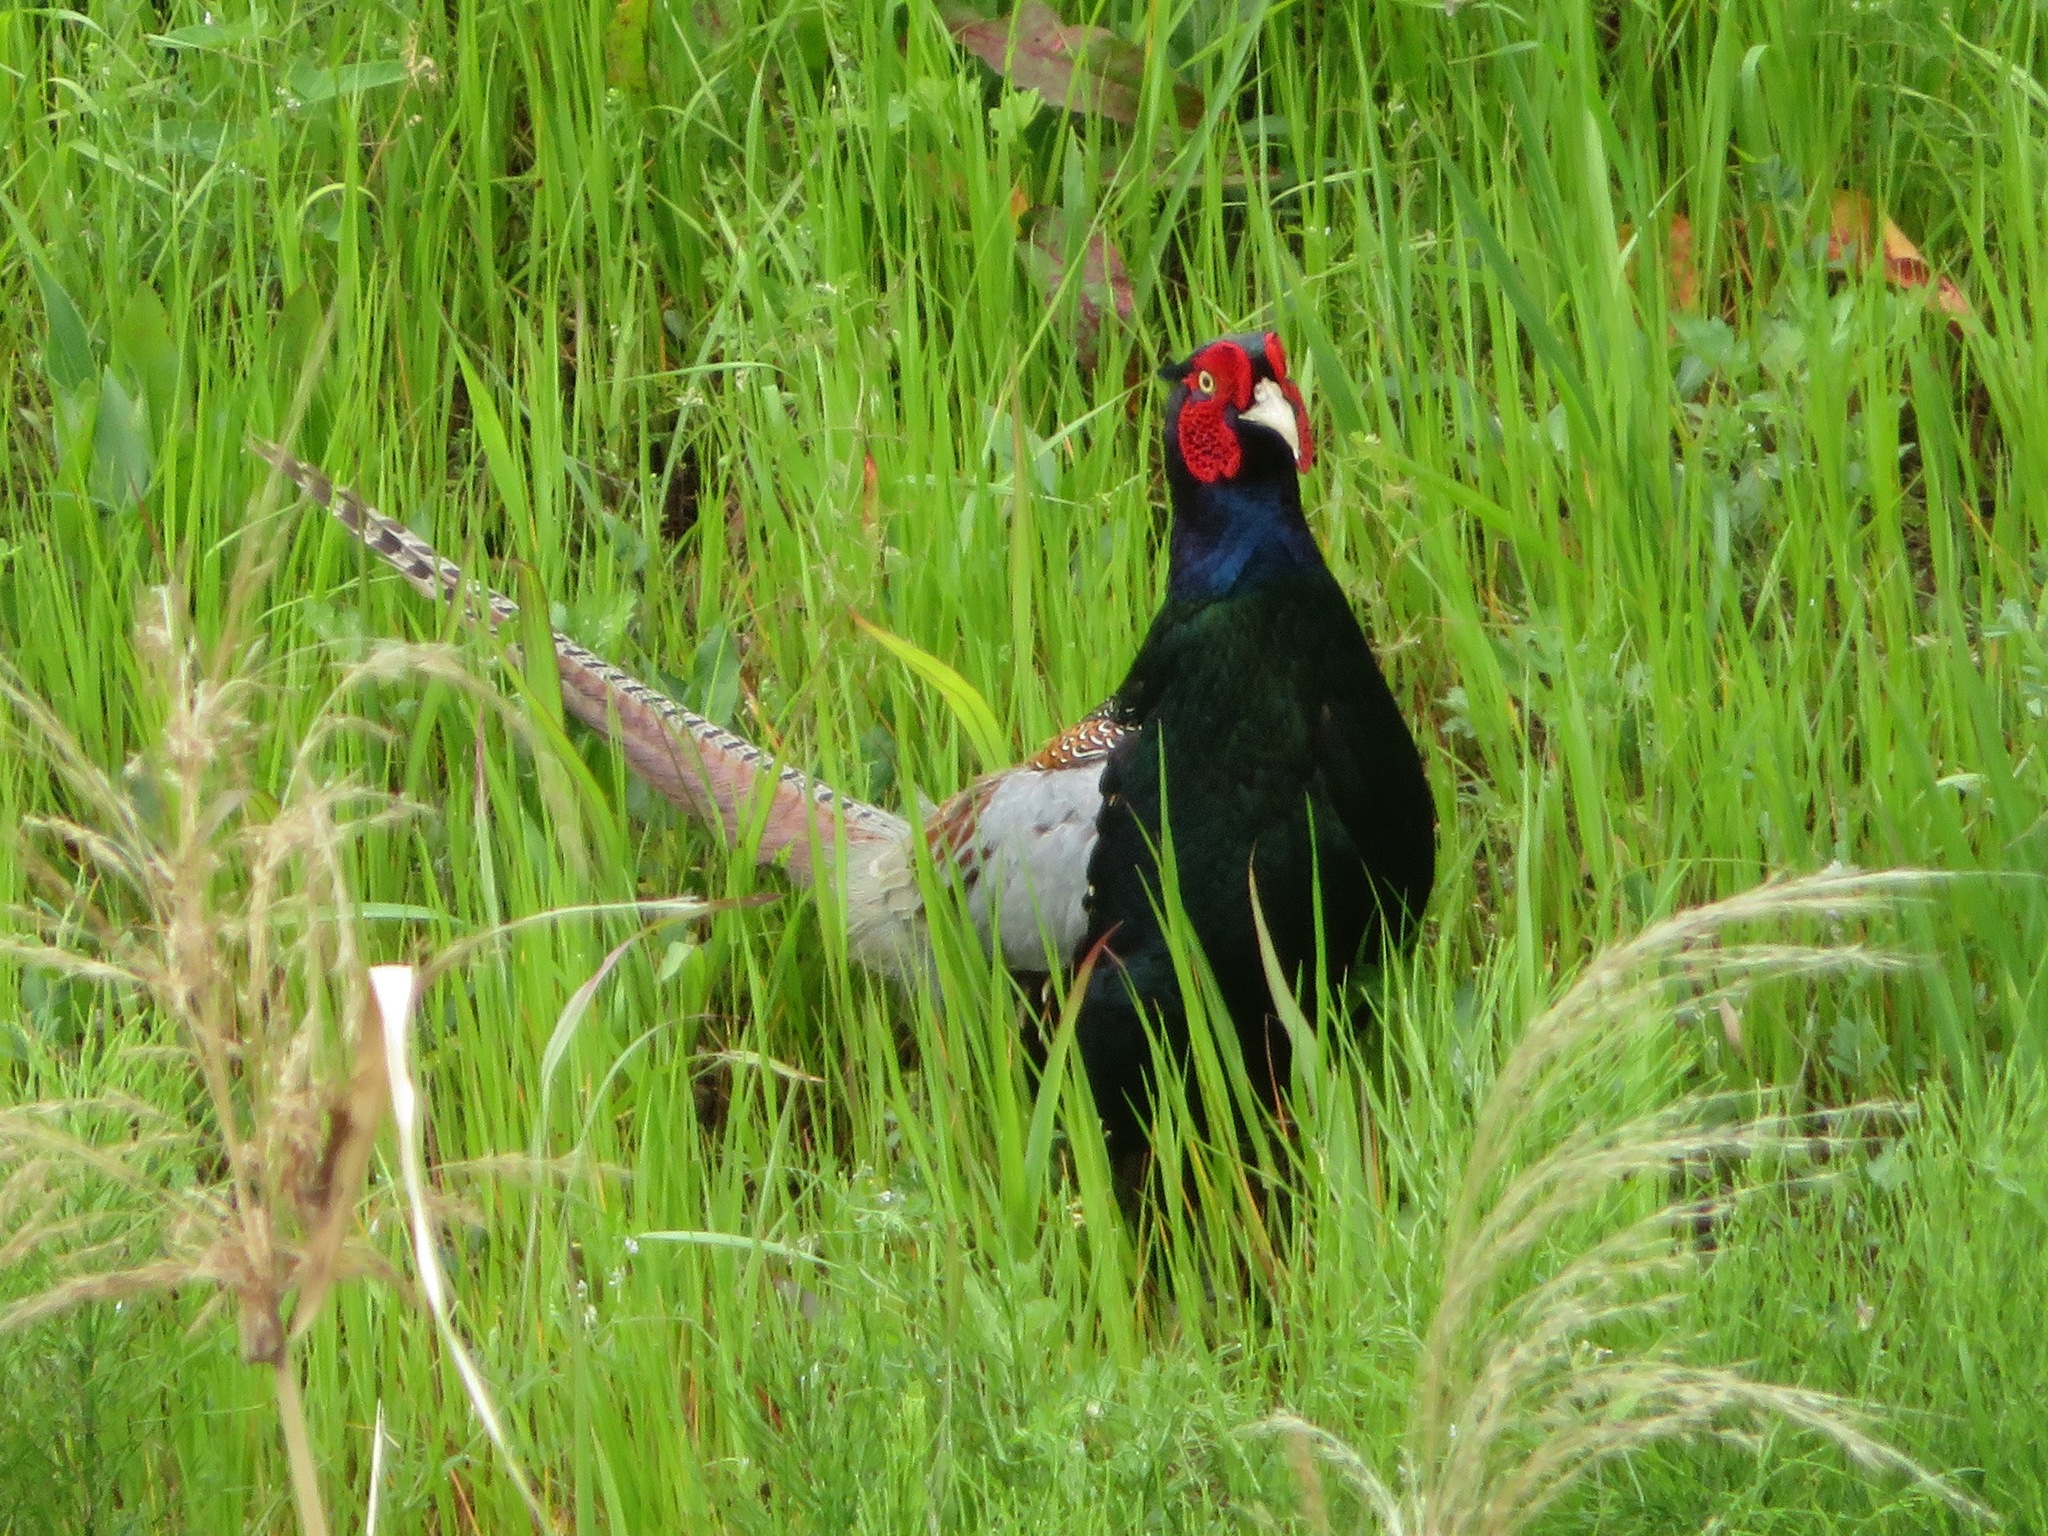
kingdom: Animalia
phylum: Chordata
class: Aves
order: Galliformes
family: Phasianidae
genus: Phasianus
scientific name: Phasianus versicolor
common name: Green pheasant
